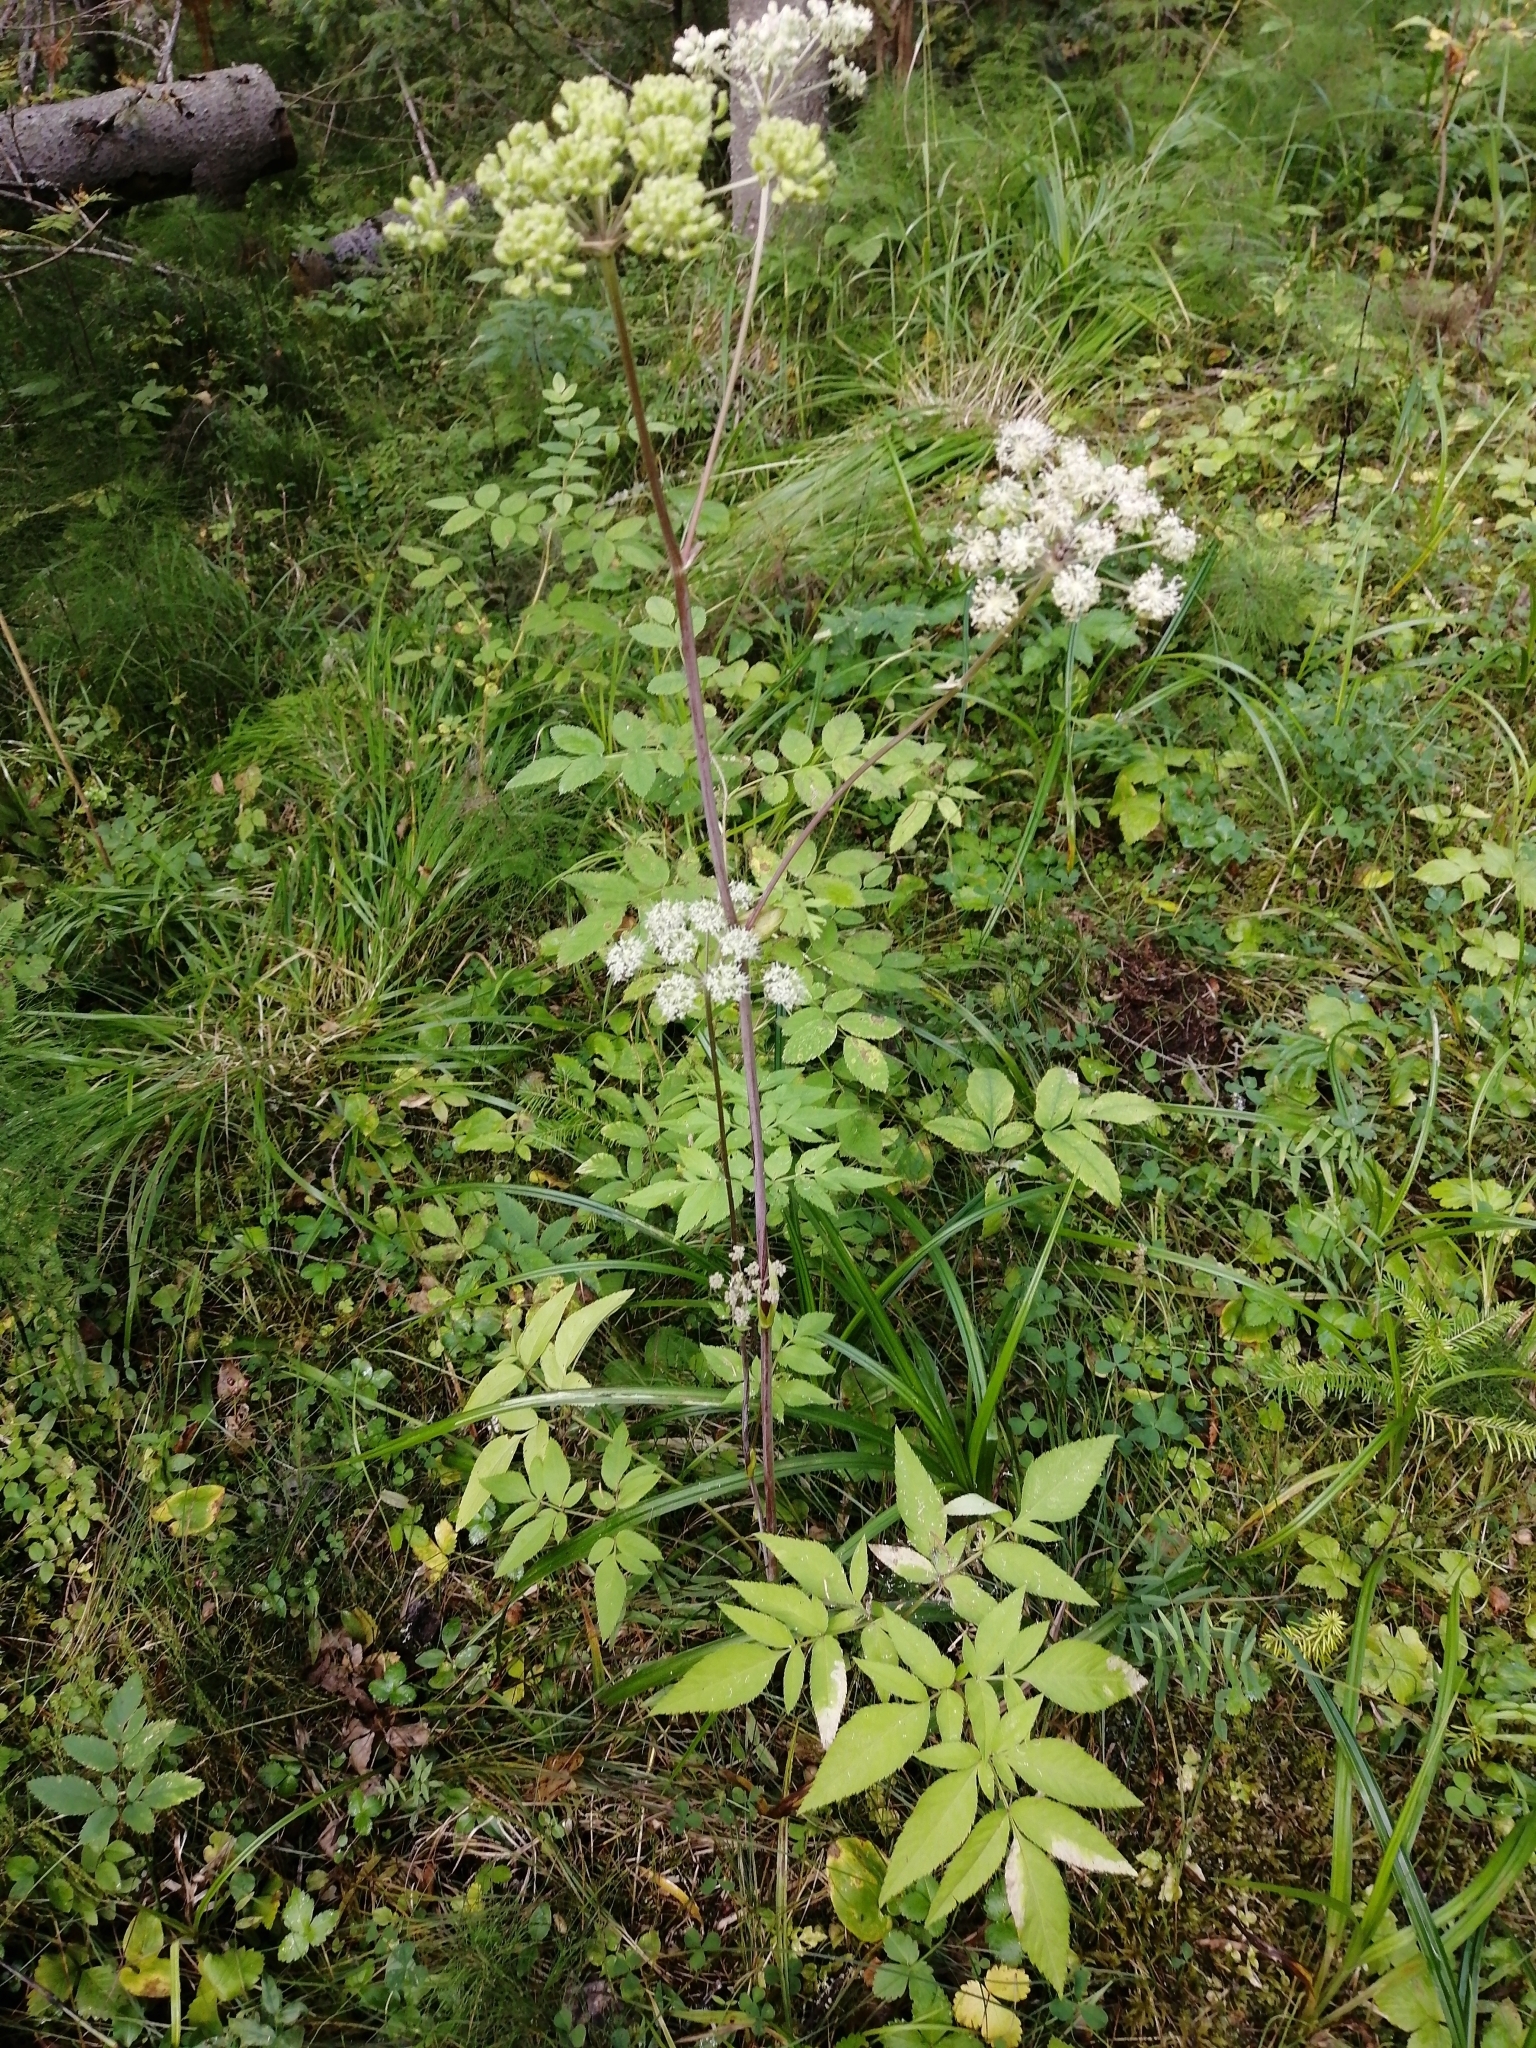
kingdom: Plantae
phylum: Tracheophyta
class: Magnoliopsida
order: Apiales
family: Apiaceae
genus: Angelica
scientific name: Angelica sylvestris
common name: Wild angelica
